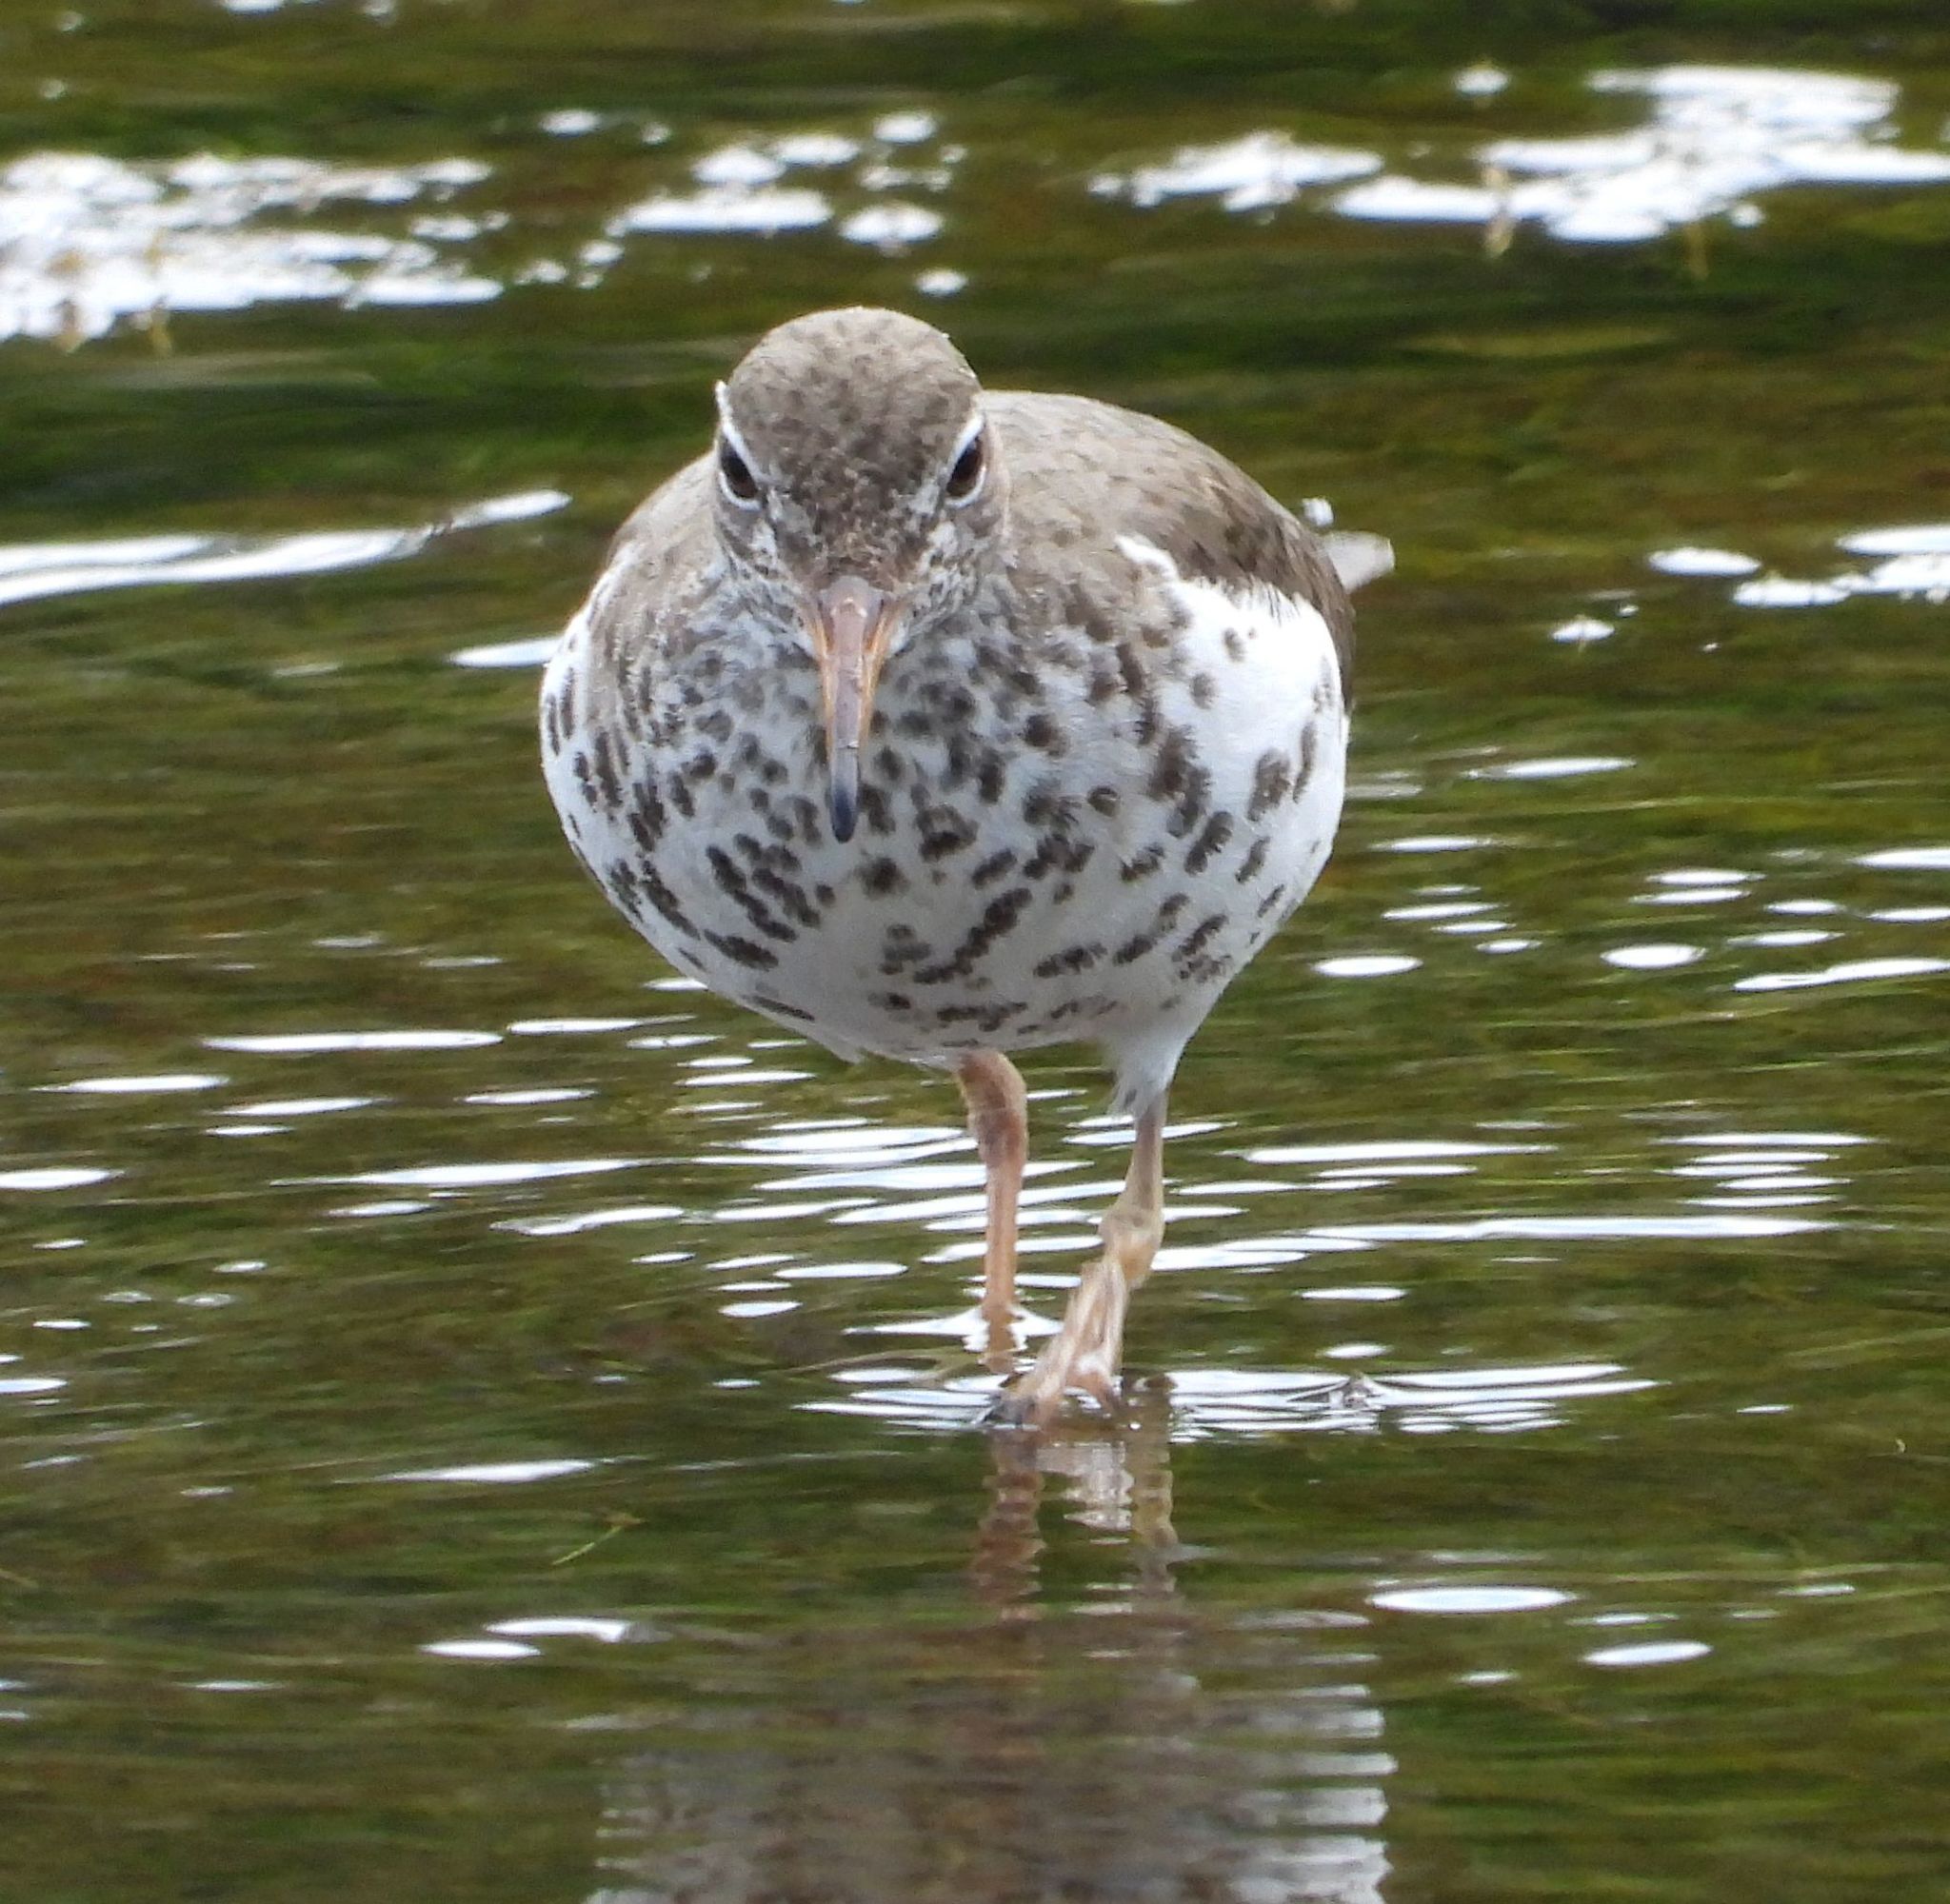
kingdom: Animalia
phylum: Chordata
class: Aves
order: Charadriiformes
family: Scolopacidae
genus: Actitis
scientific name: Actitis macularius
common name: Spotted sandpiper
